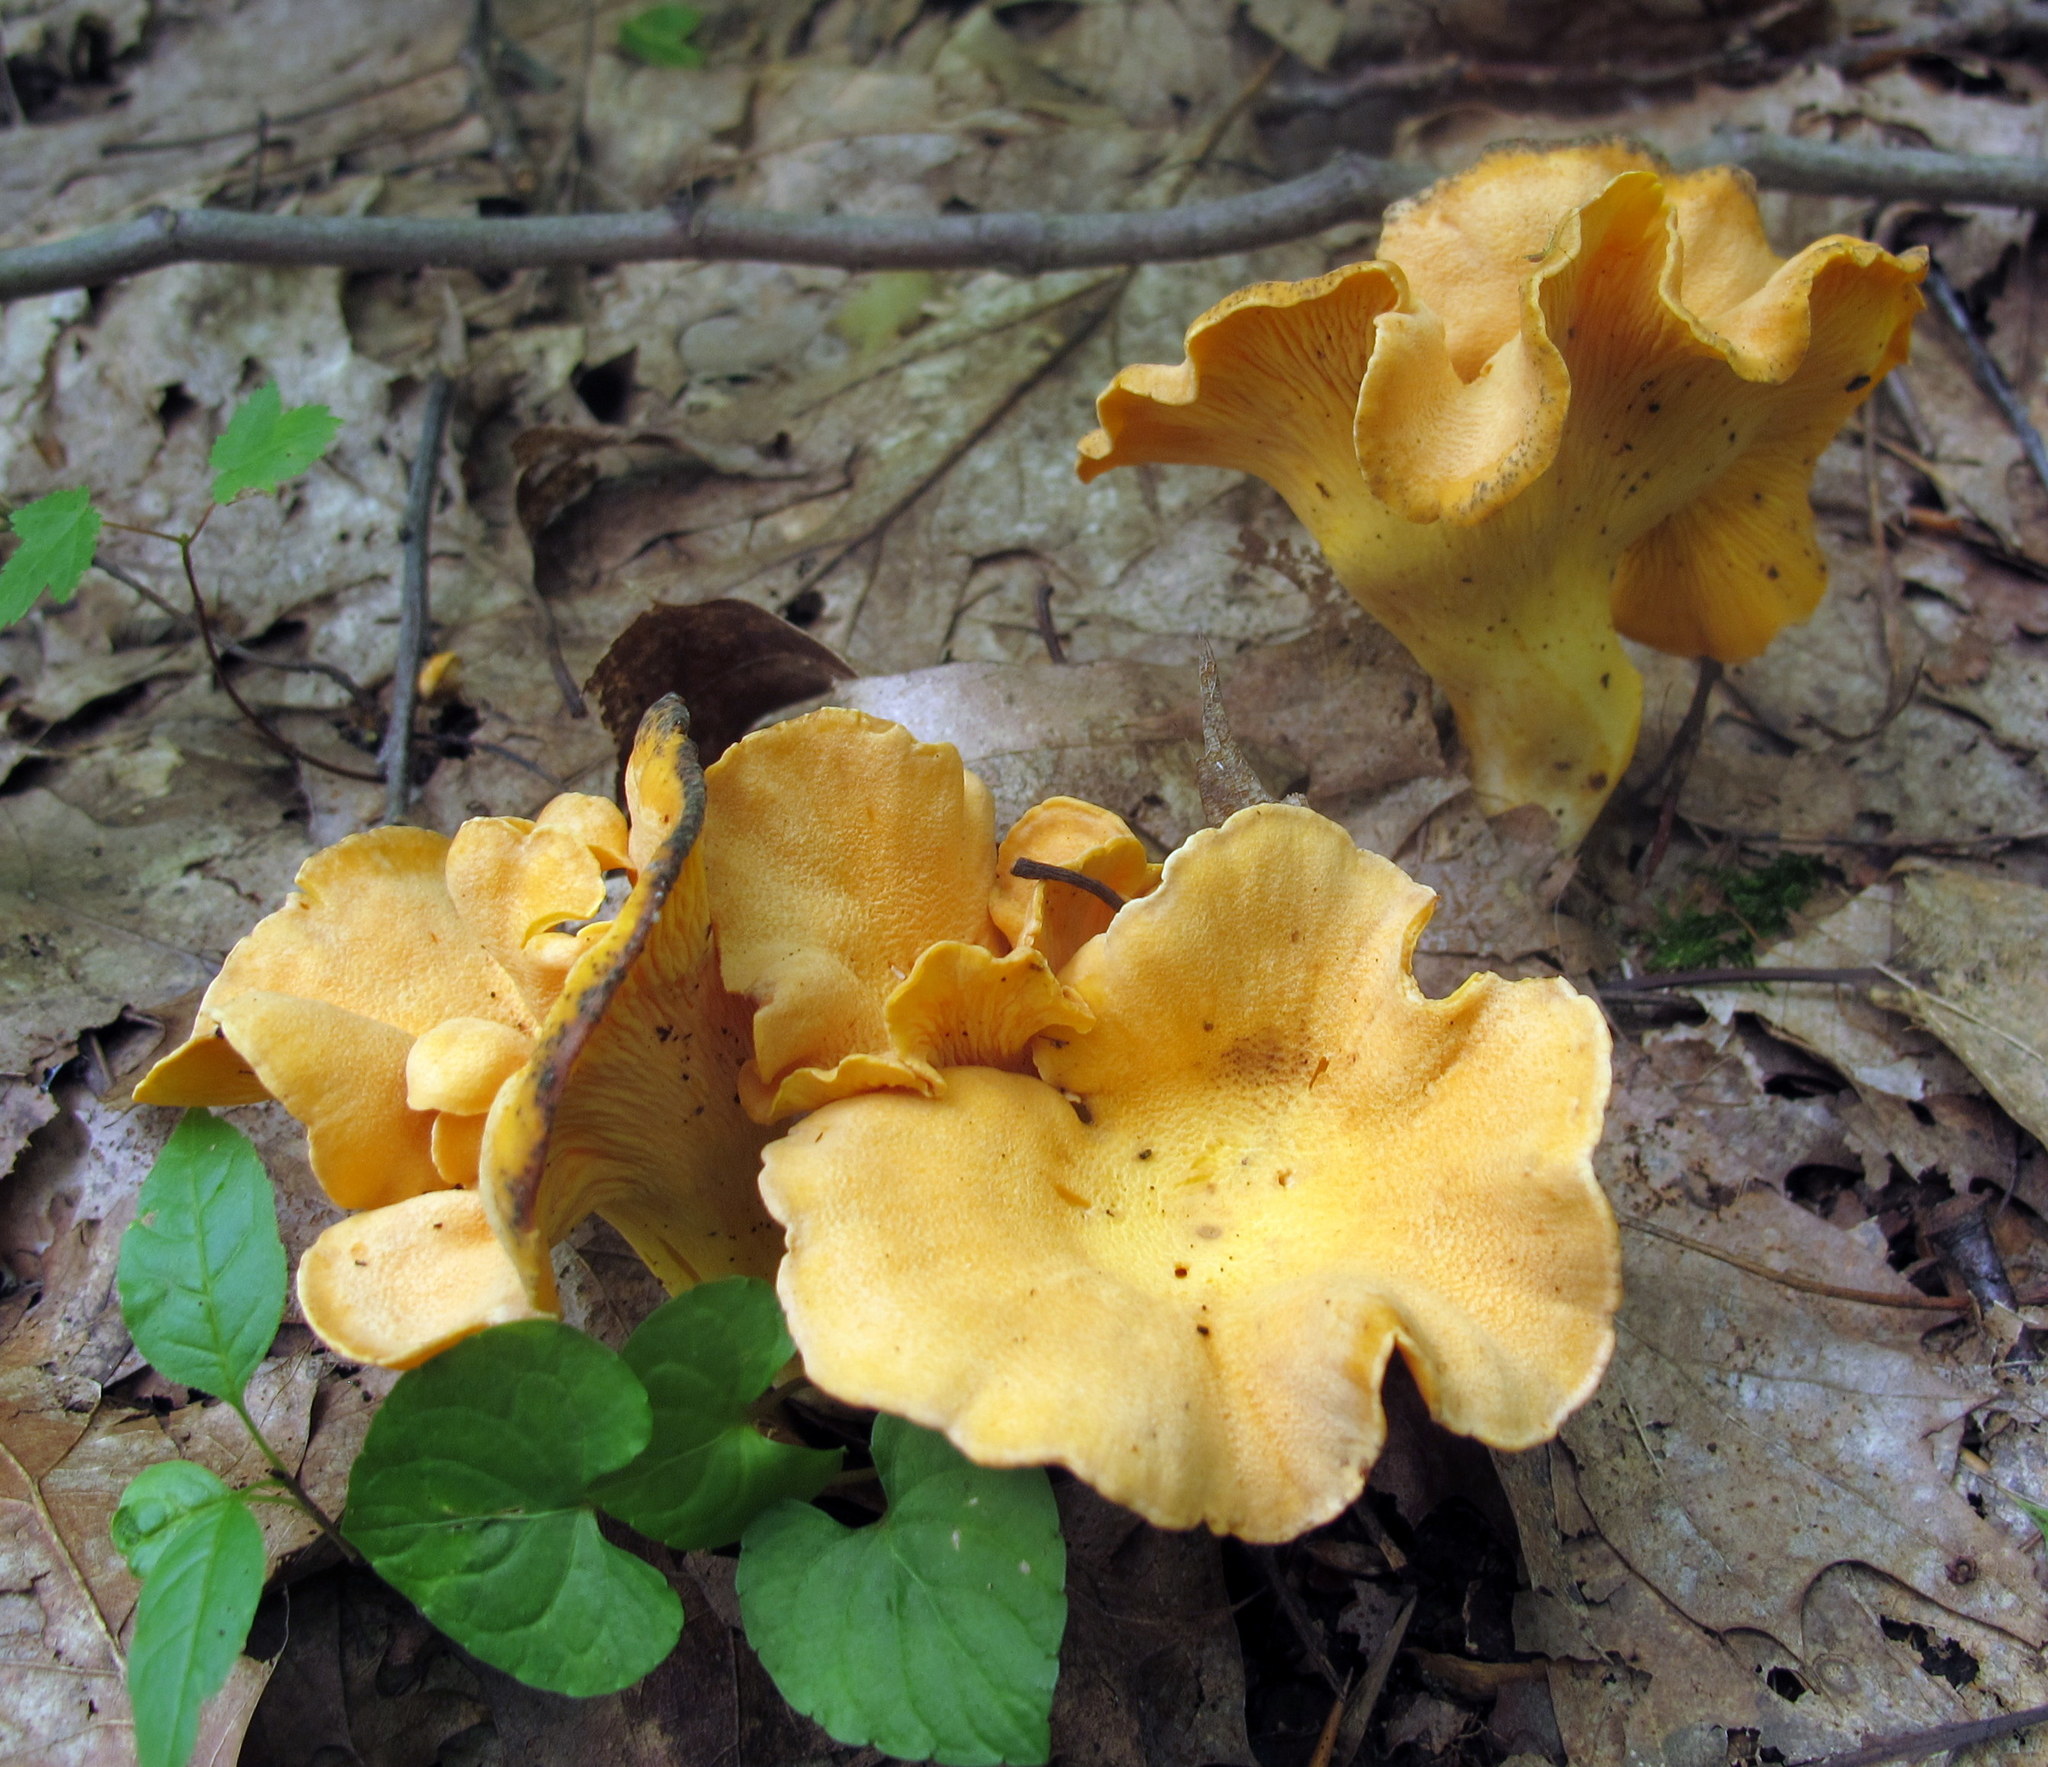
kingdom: Fungi
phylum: Basidiomycota
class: Agaricomycetes
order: Cantharellales
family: Hydnaceae
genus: Cantharellus
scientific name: Cantharellus lateritius
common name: Smooth chanterelle
